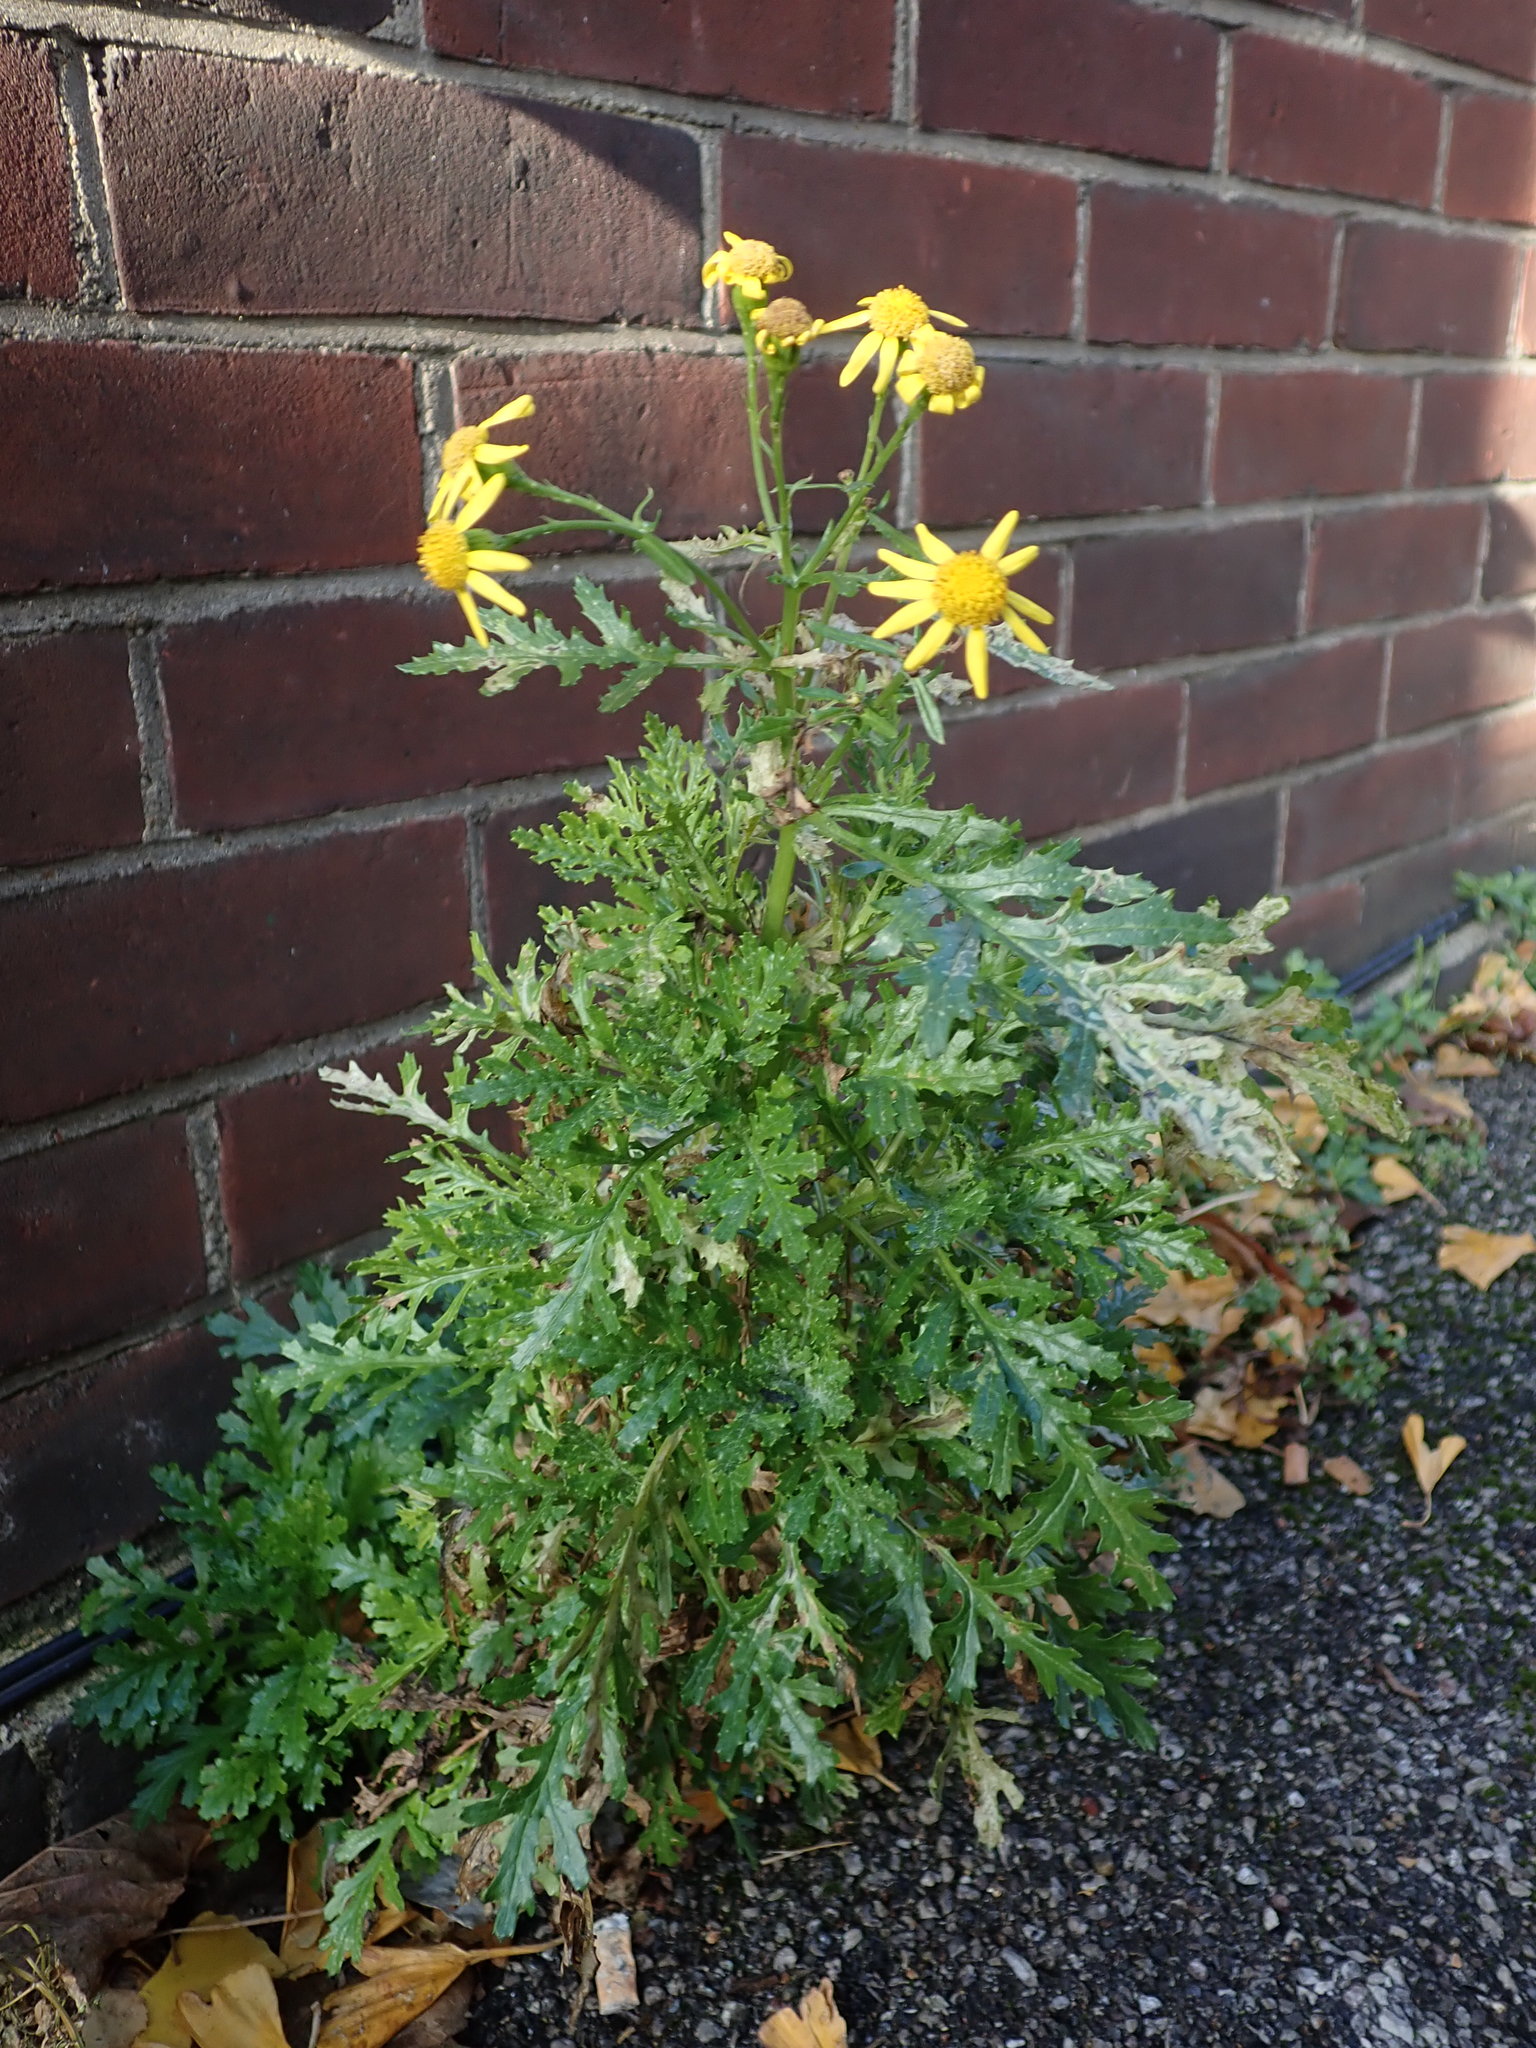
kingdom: Plantae
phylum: Tracheophyta
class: Magnoliopsida
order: Asterales
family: Asteraceae
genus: Senecio
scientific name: Senecio squalidus
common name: Oxford ragwort
